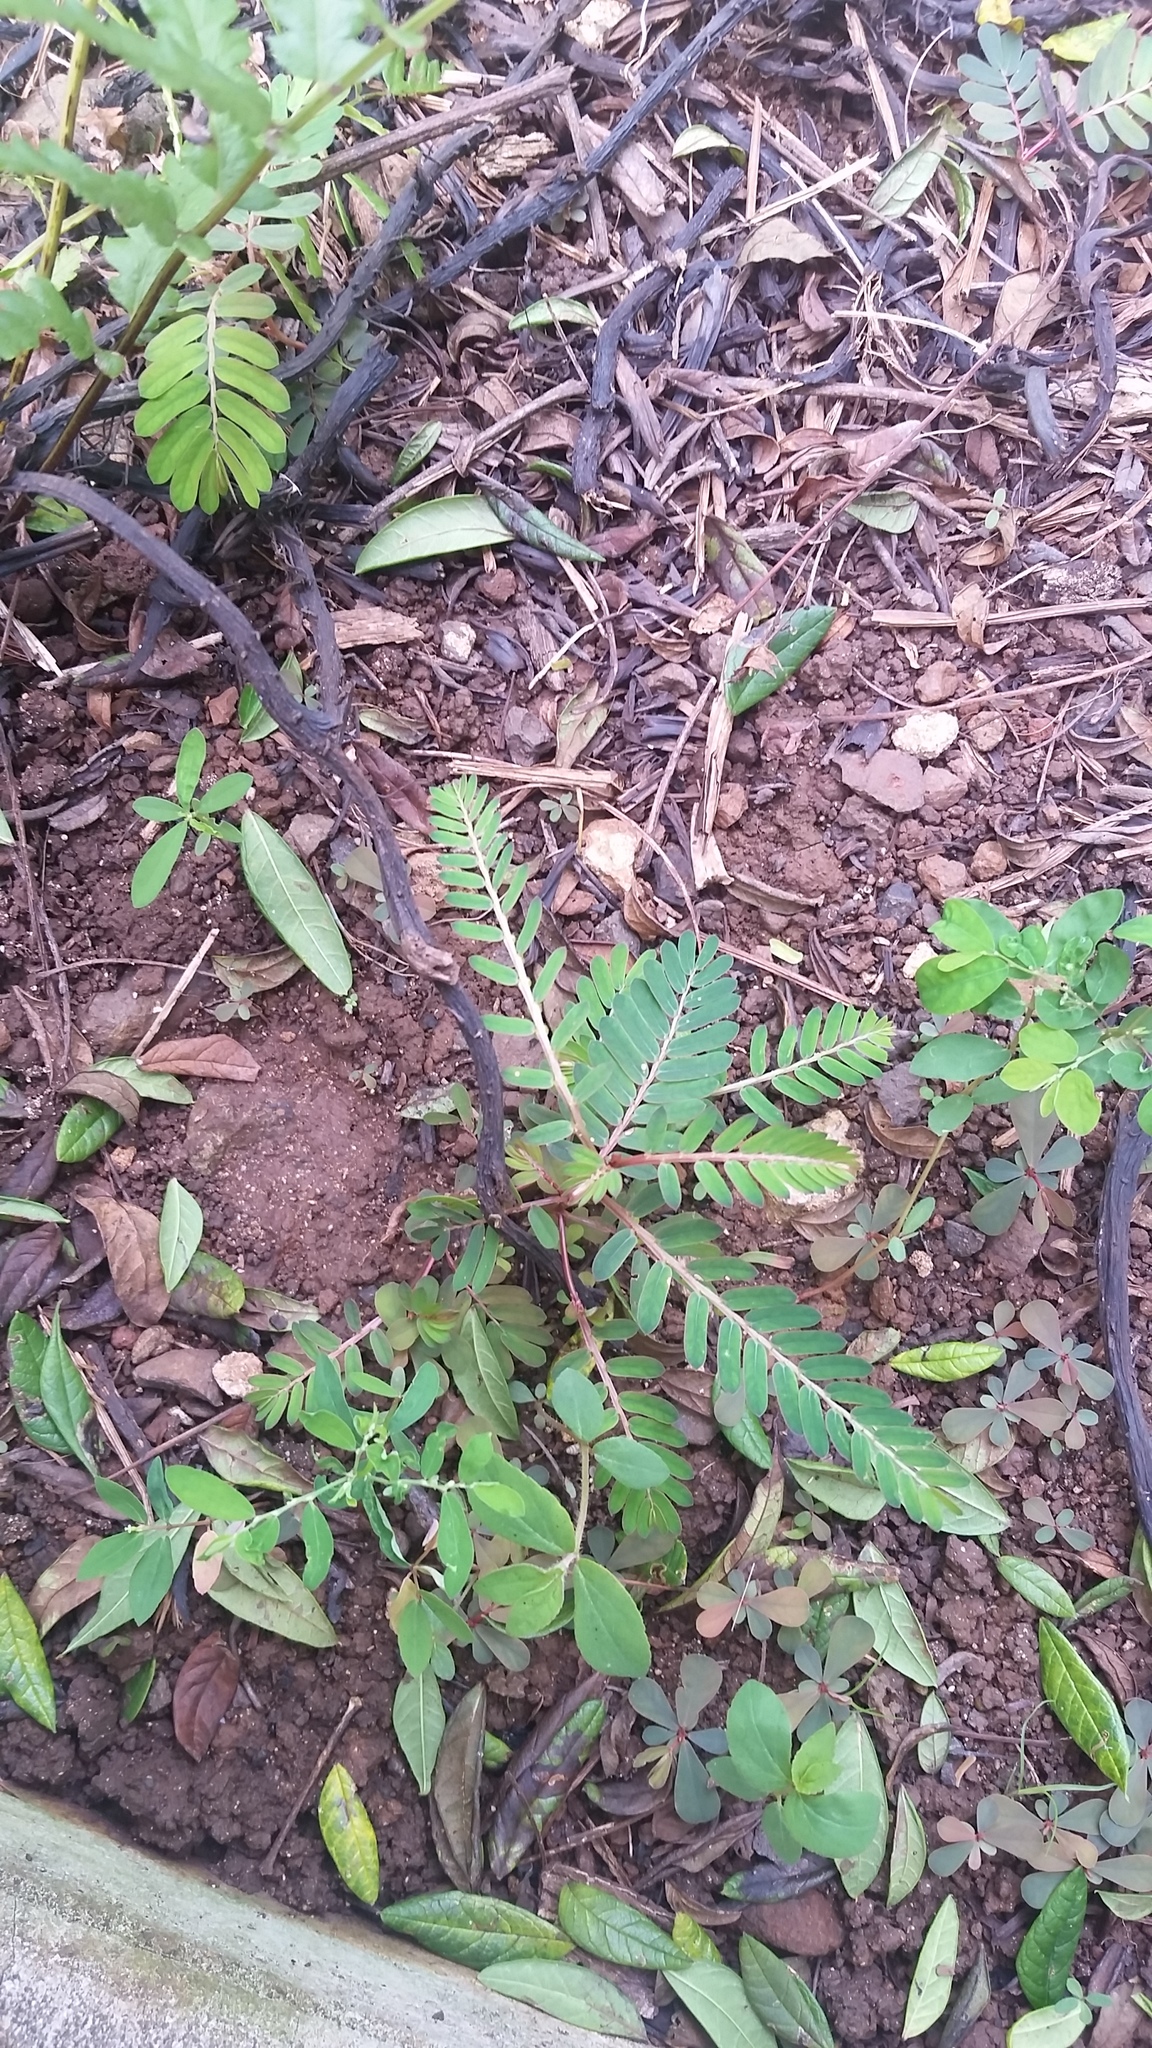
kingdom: Plantae
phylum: Tracheophyta
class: Magnoliopsida
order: Malpighiales
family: Phyllanthaceae
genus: Phyllanthus
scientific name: Phyllanthus urinaria
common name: Chamber bitter
